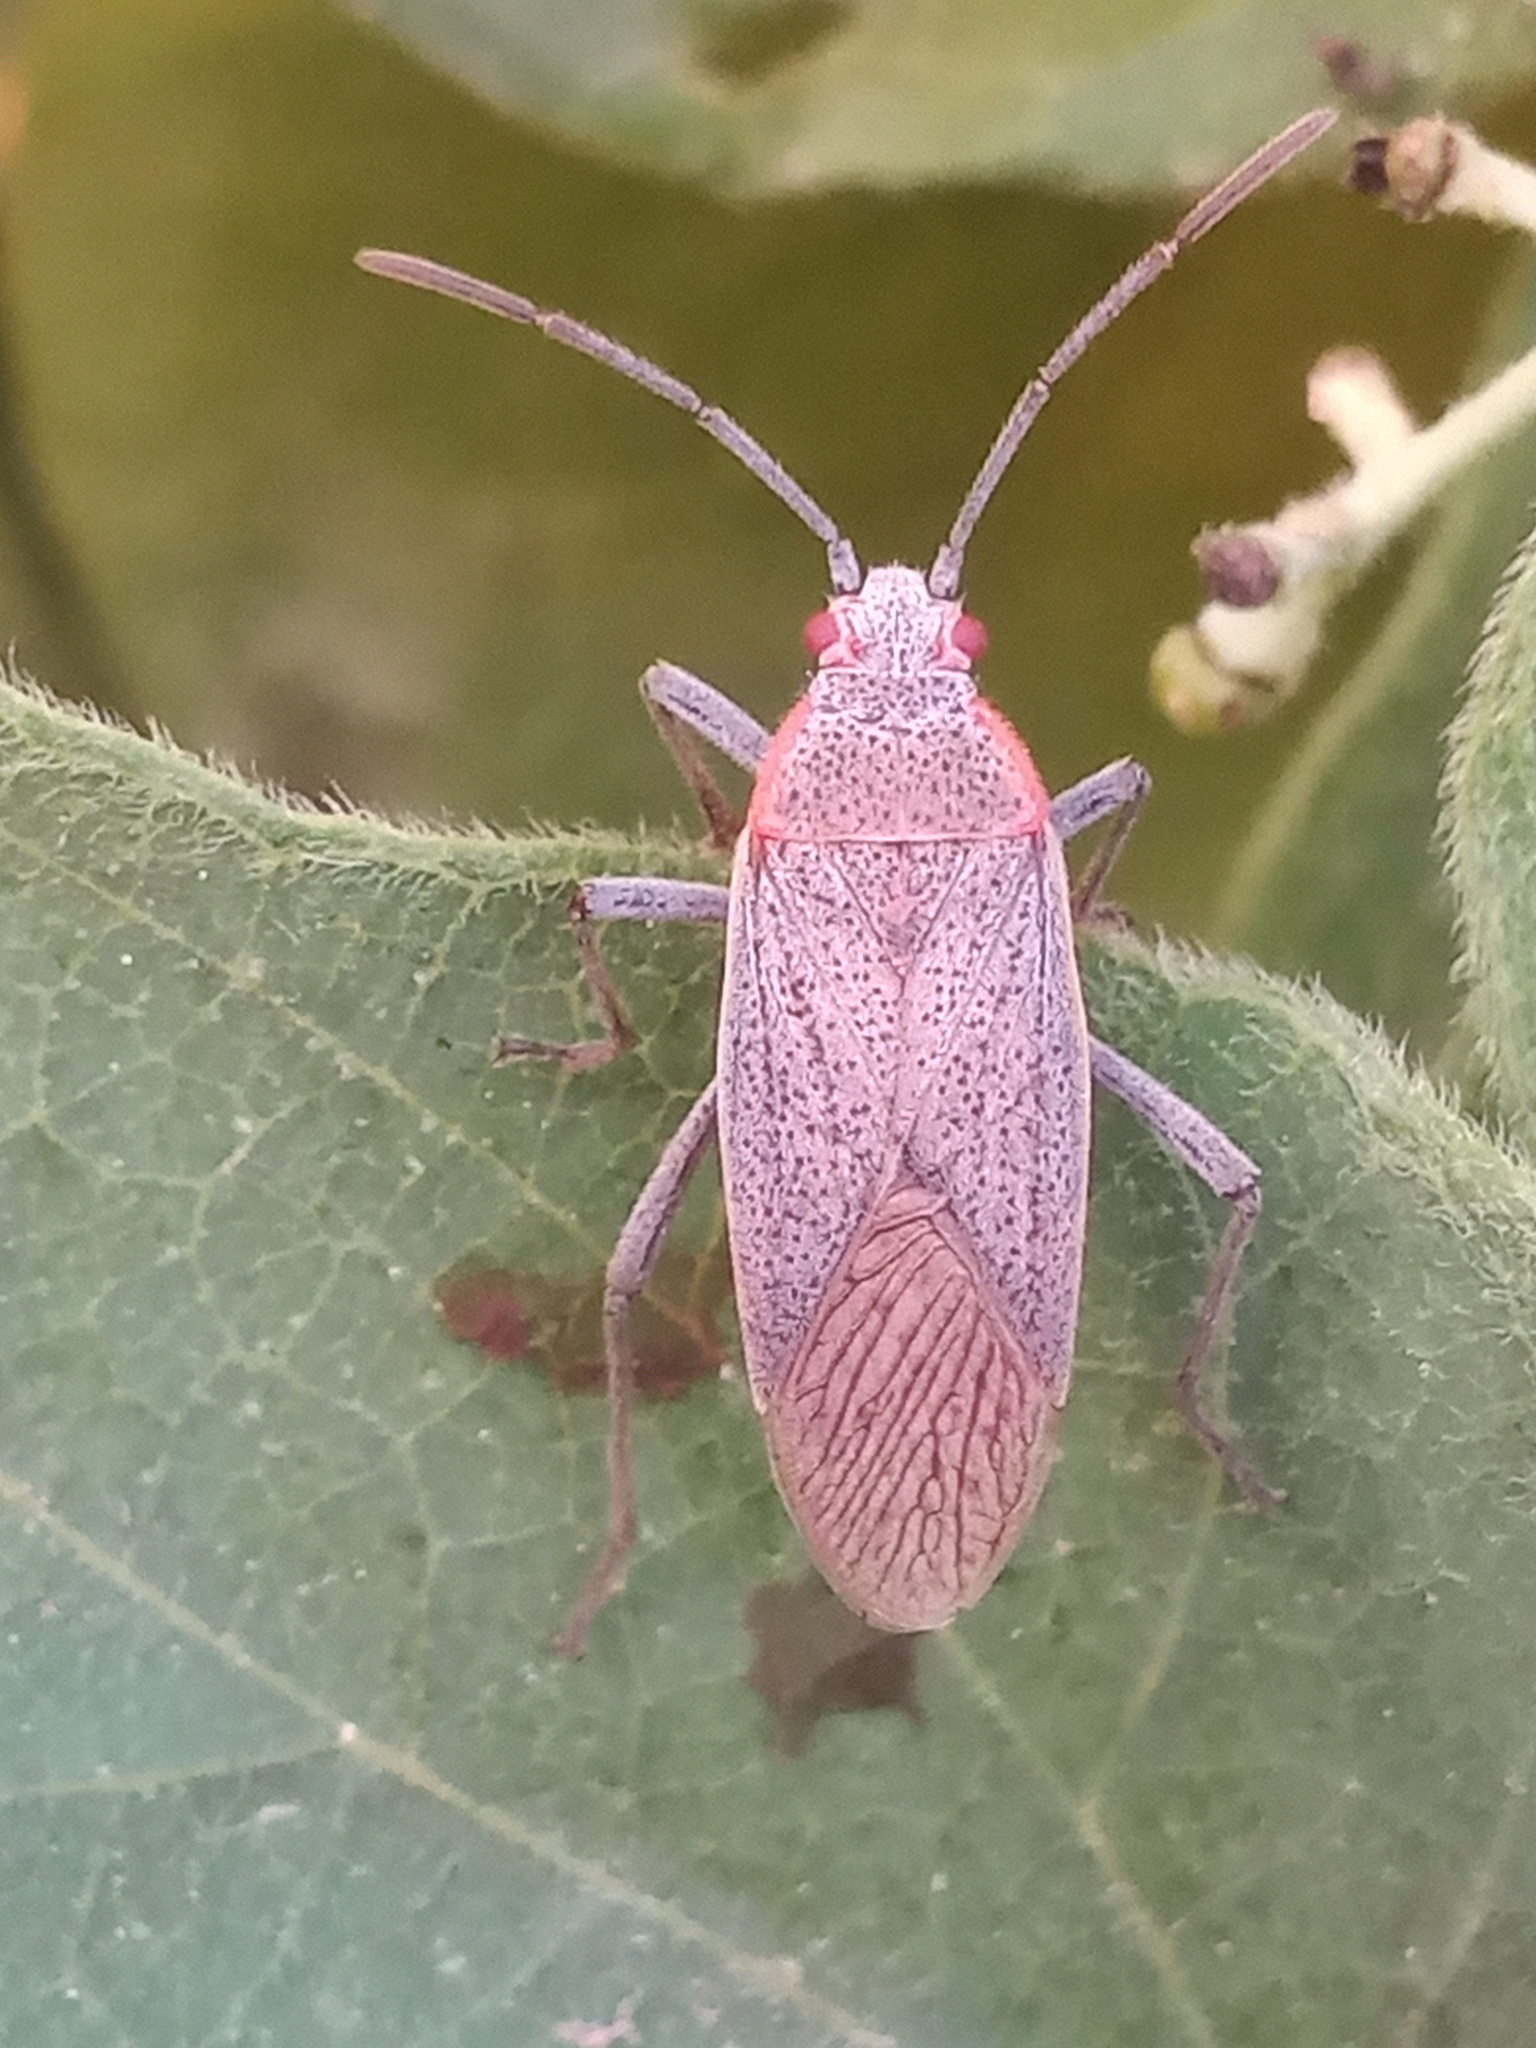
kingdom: Animalia
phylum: Arthropoda
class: Insecta
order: Hemiptera
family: Rhopalidae
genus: Jadera
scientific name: Jadera coturnix
